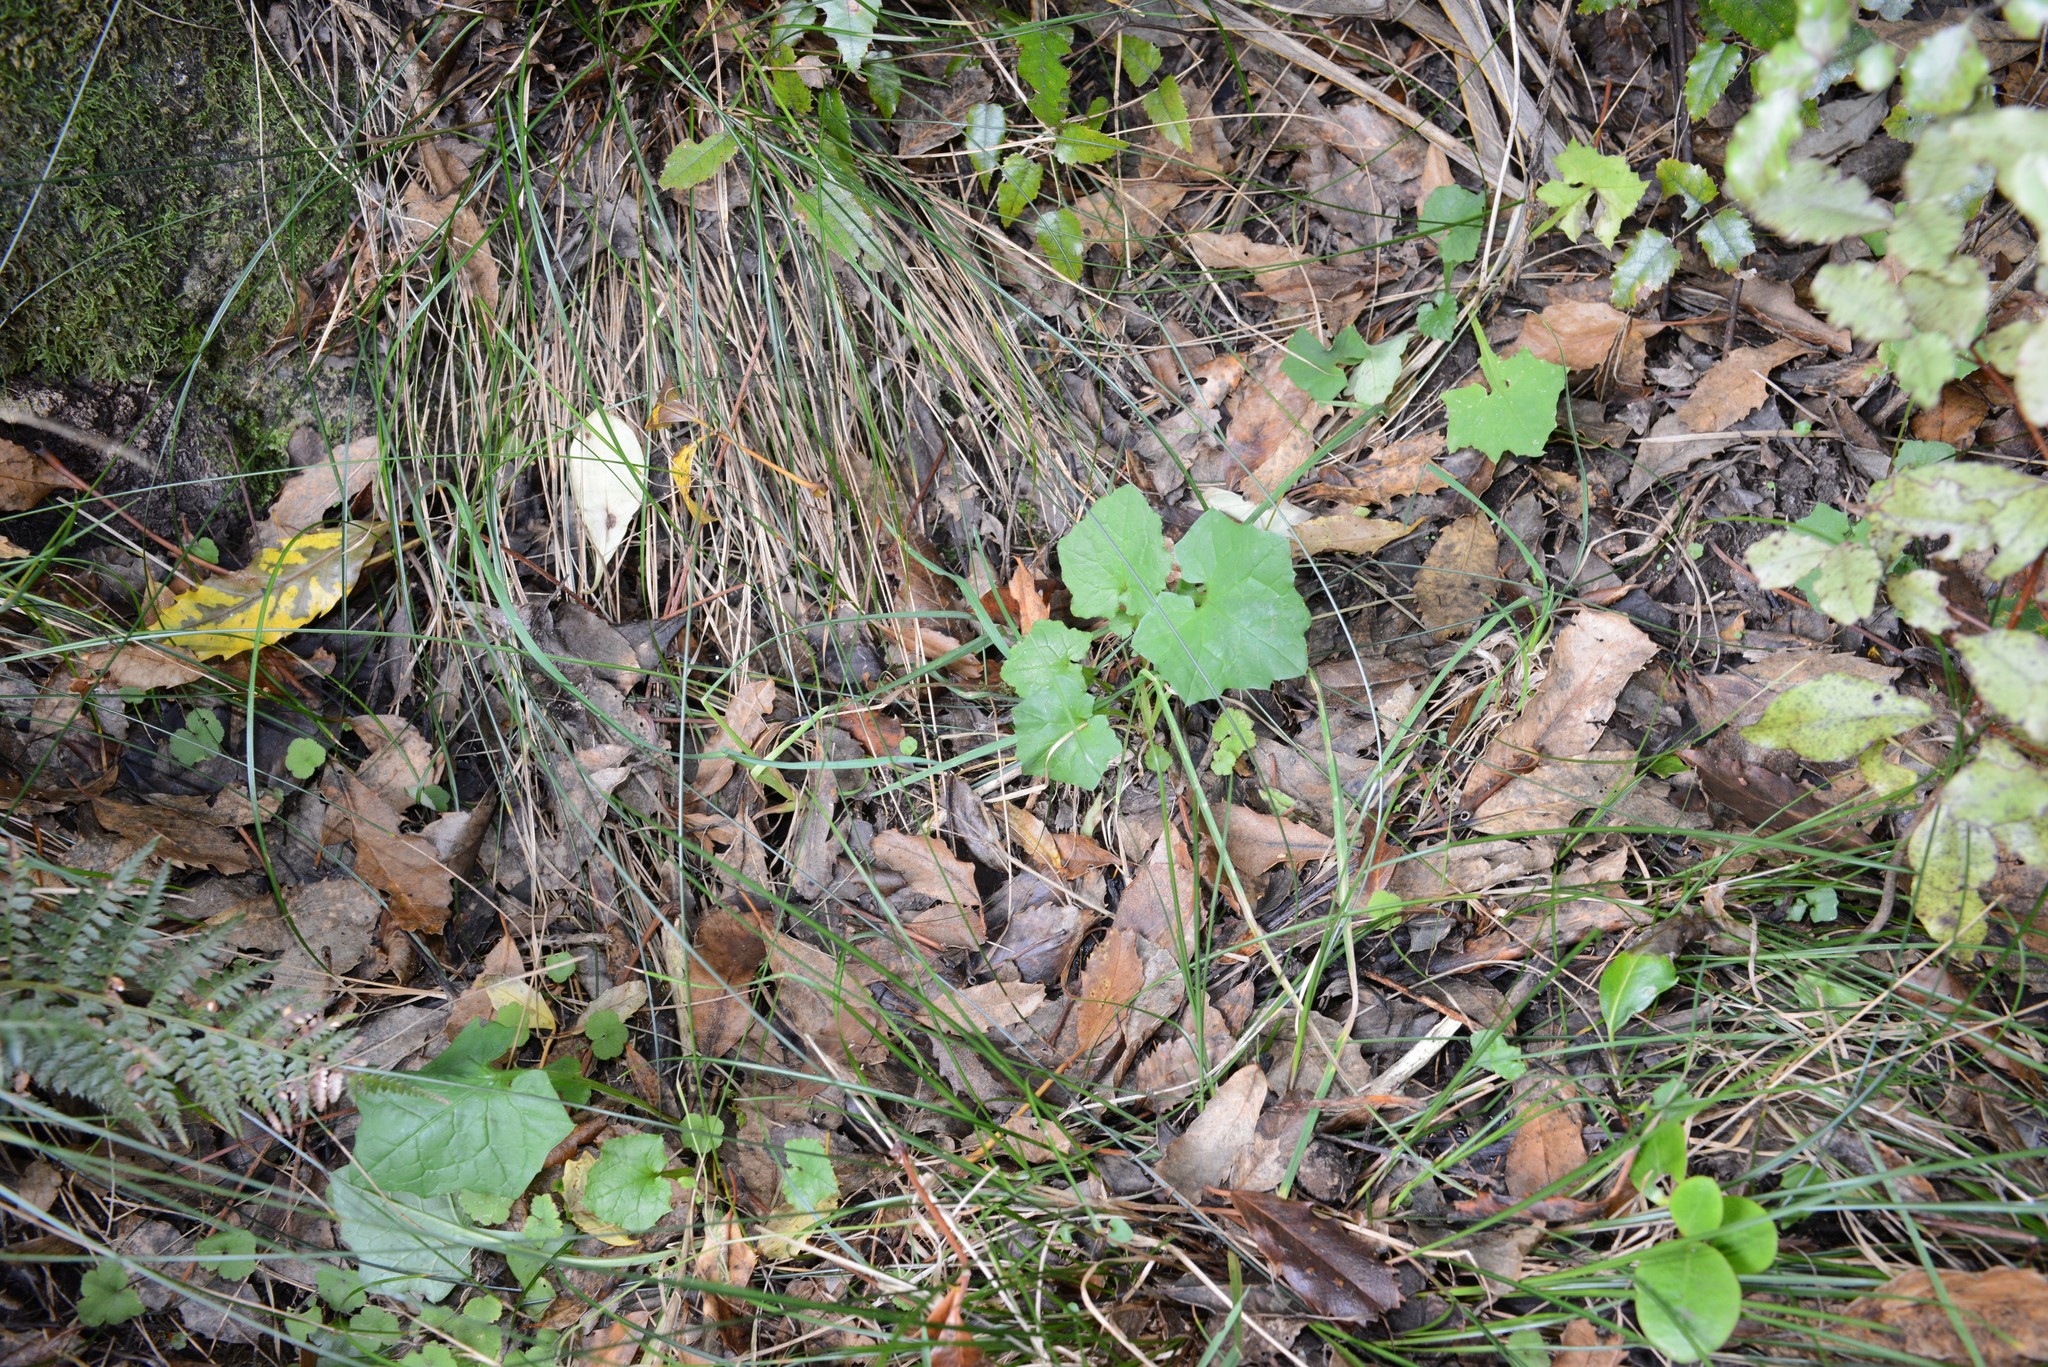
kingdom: Plantae
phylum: Tracheophyta
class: Magnoliopsida
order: Asterales
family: Asteraceae
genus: Mycelis
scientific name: Mycelis muralis
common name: Wall lettuce
